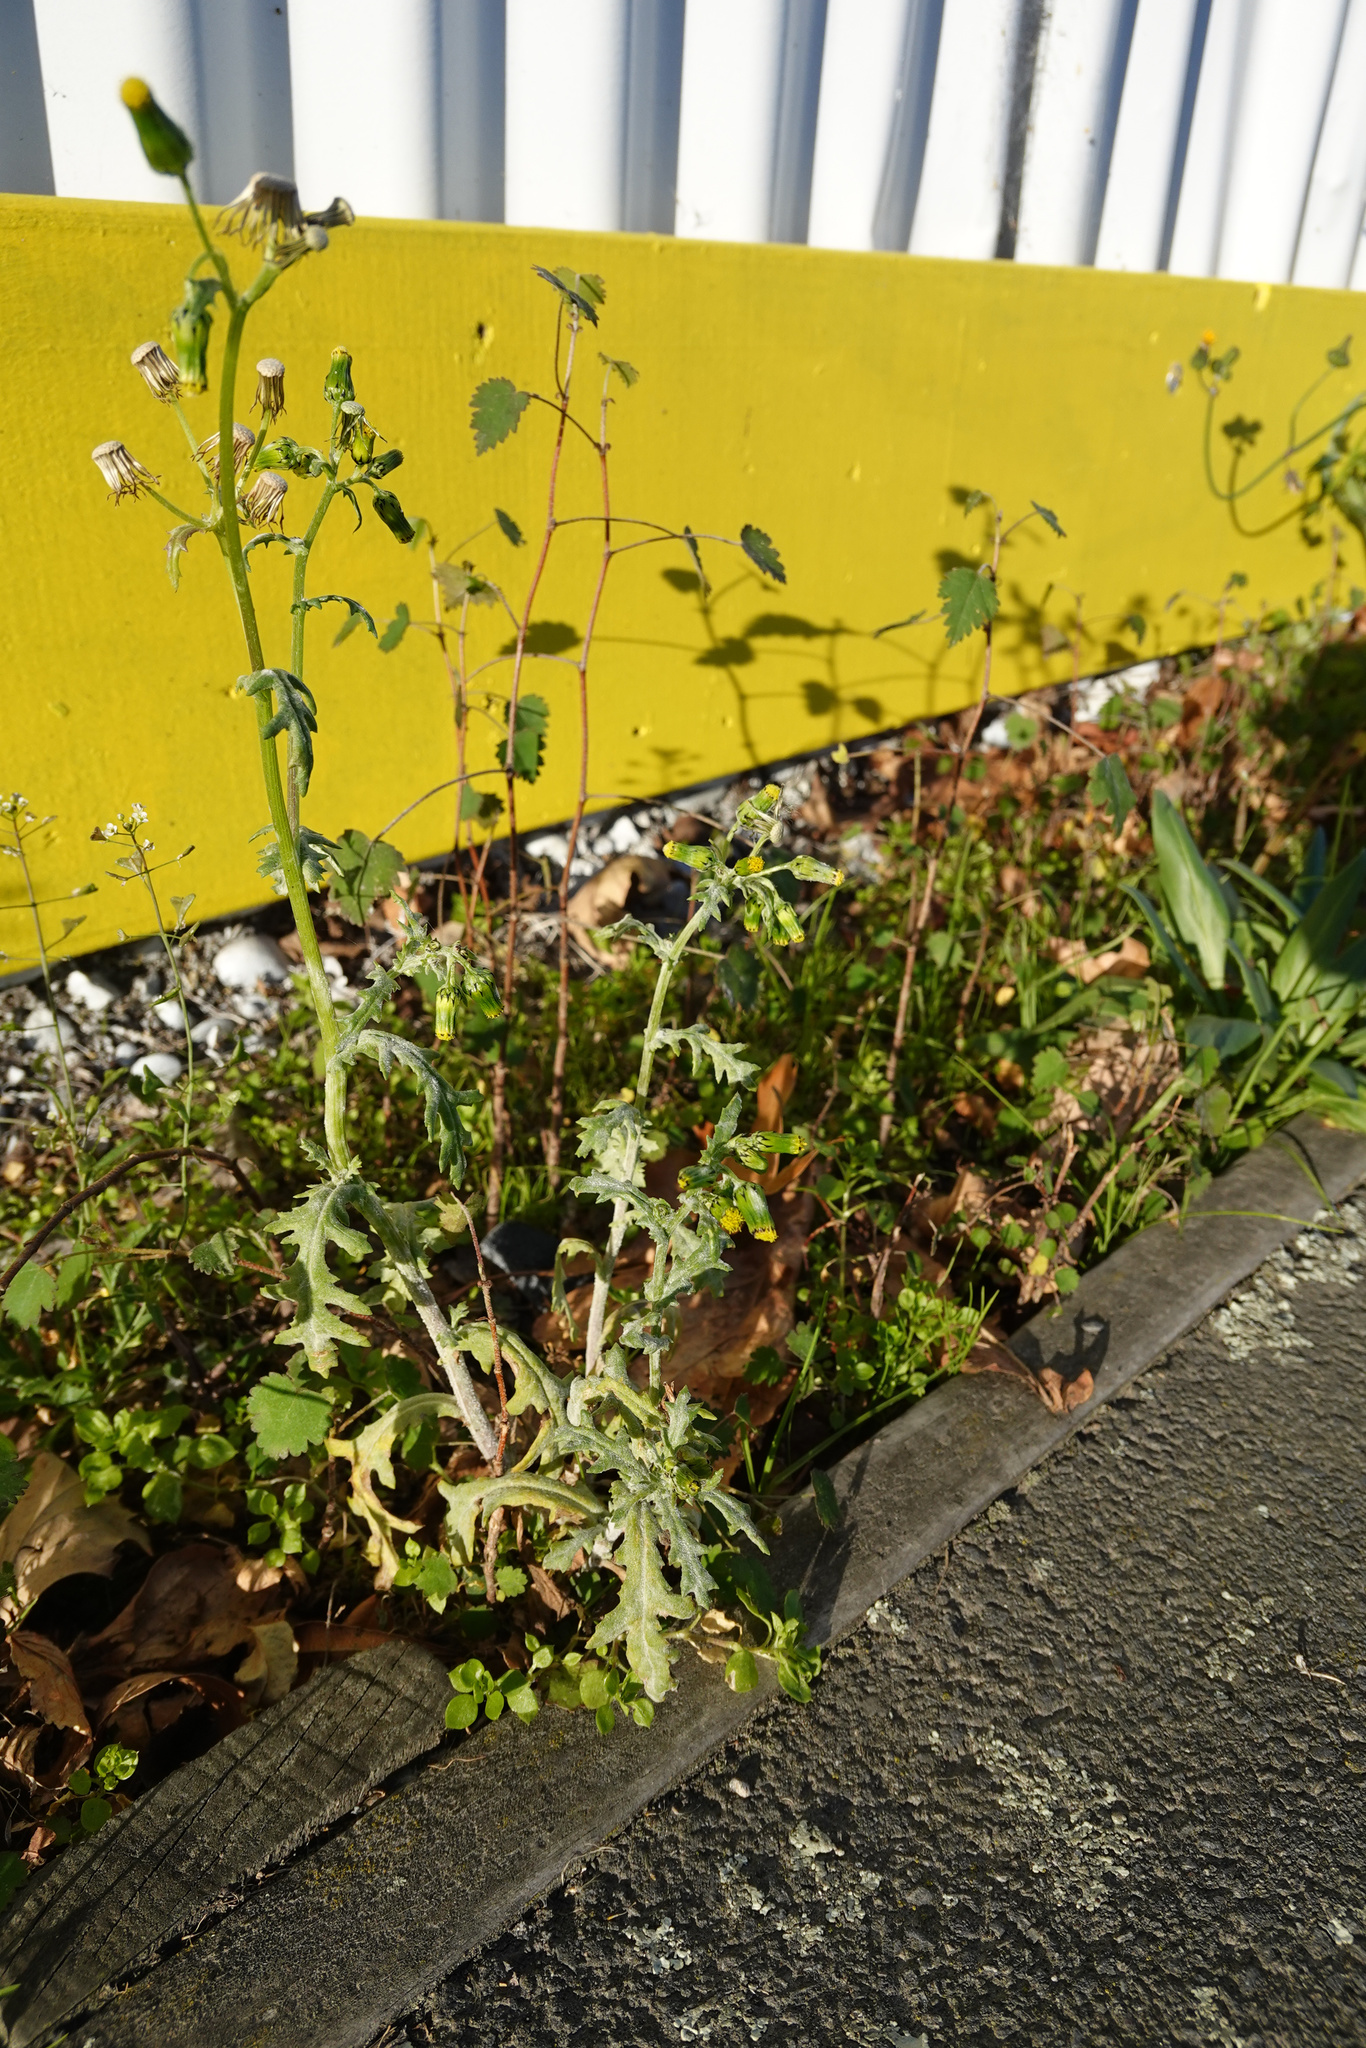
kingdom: Plantae
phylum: Tracheophyta
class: Magnoliopsida
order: Asterales
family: Asteraceae
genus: Senecio
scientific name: Senecio vulgaris
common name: Old-man-in-the-spring
